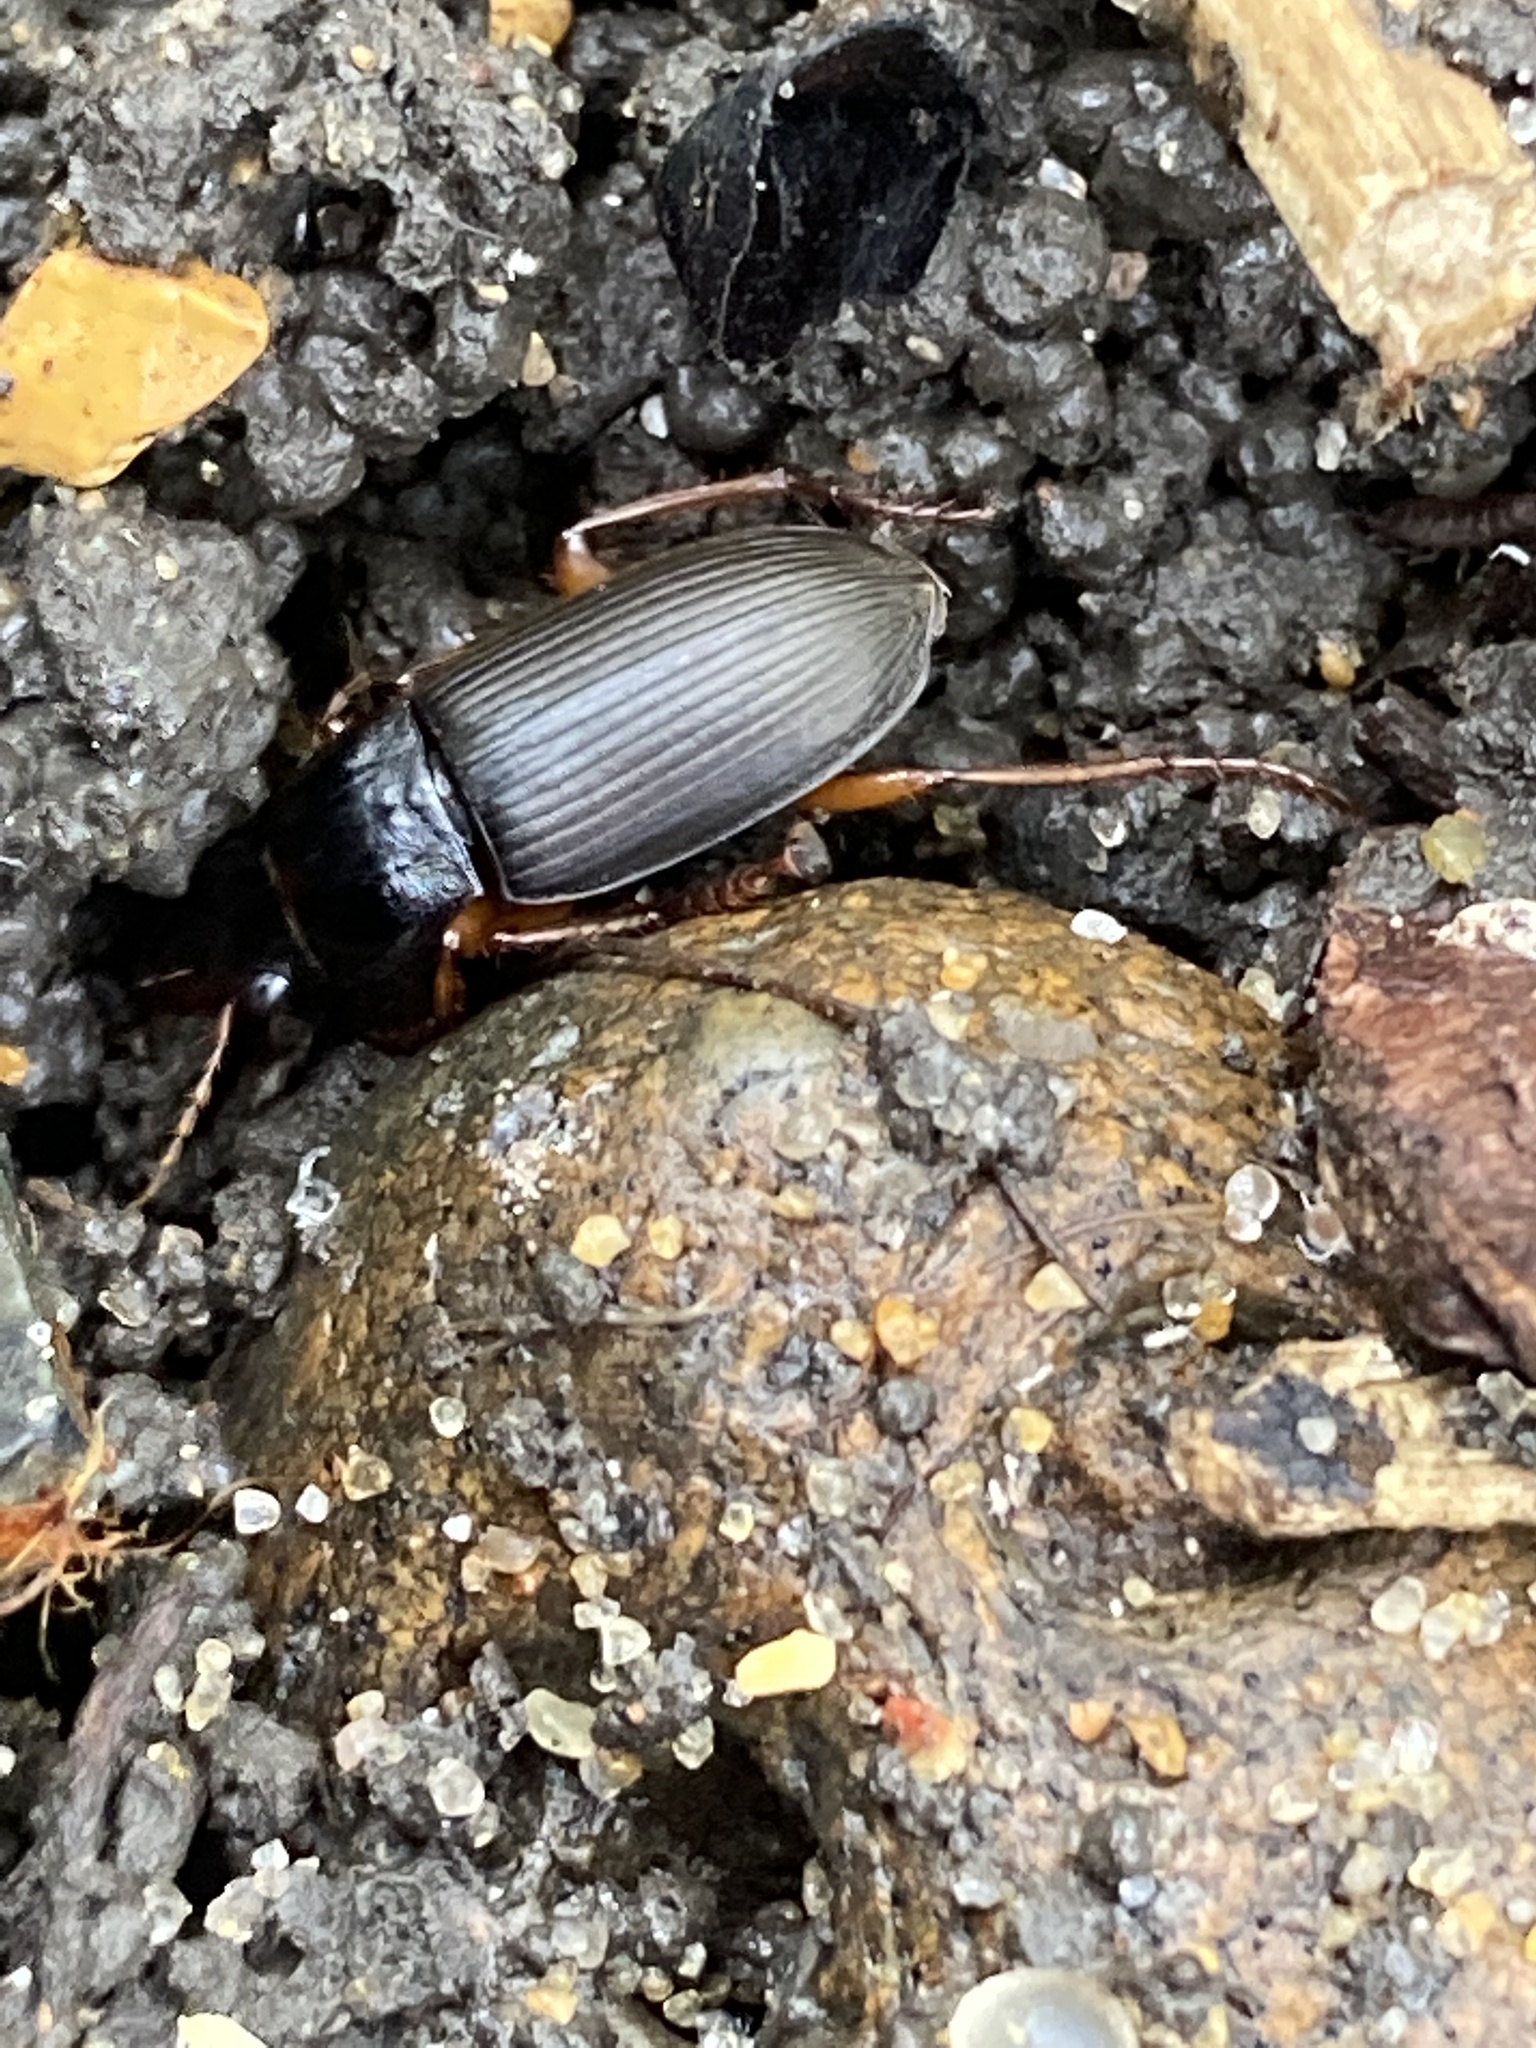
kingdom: Animalia
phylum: Arthropoda
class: Insecta
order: Coleoptera
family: Carabidae
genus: Harpalus
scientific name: Harpalus rufipes
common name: Strawberry harp ground beetle
